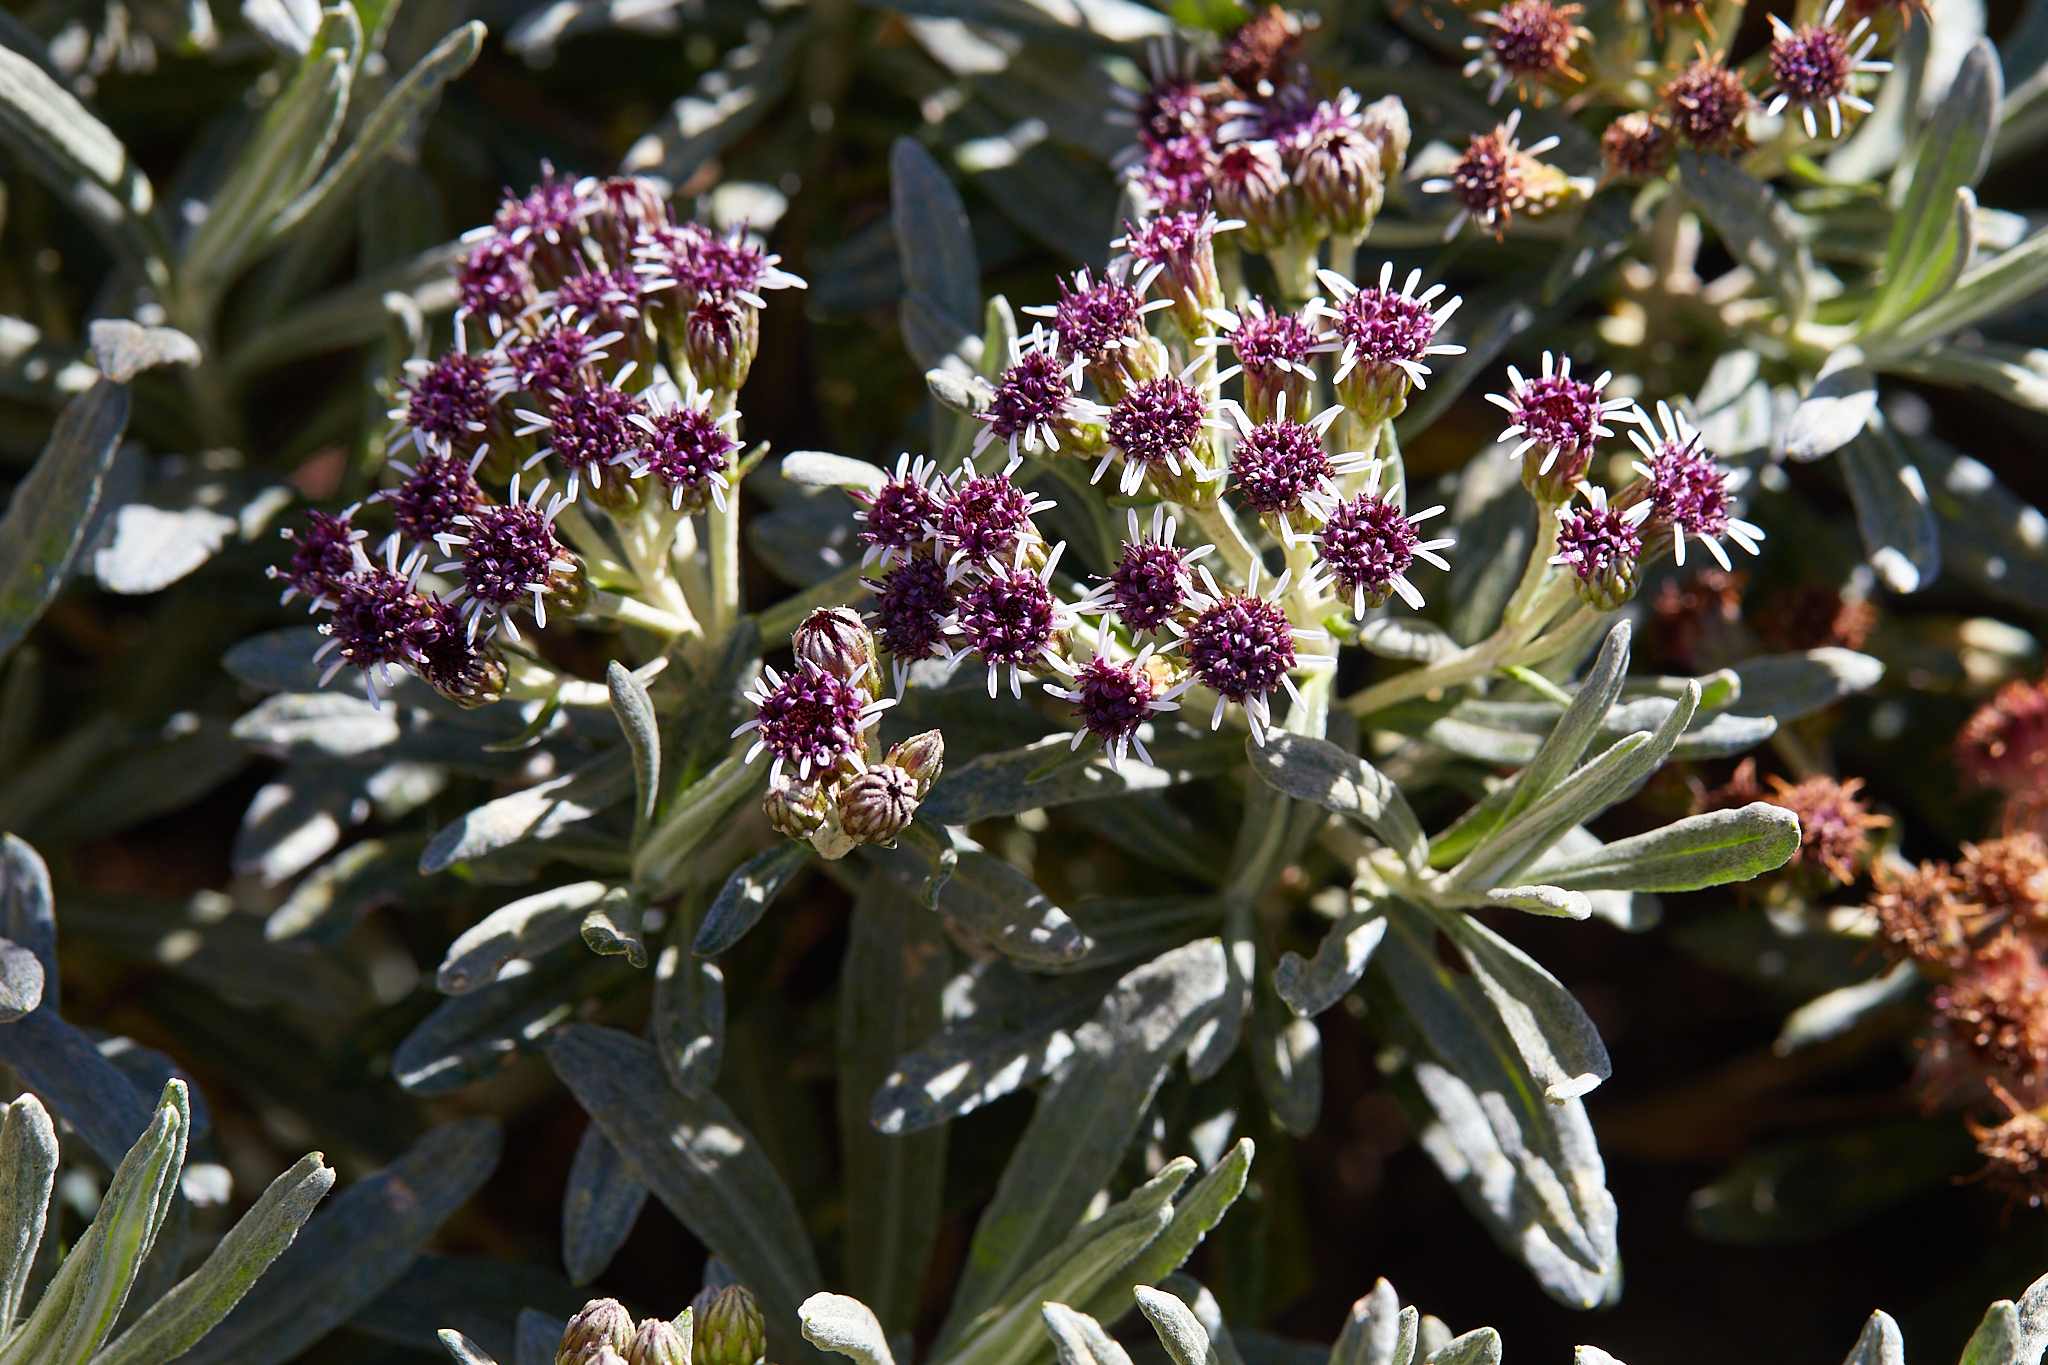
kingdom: Plantae
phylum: Tracheophyta
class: Magnoliopsida
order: Asterales
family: Asteraceae
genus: Linochilus
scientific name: Linochilus rosmarinifolius
